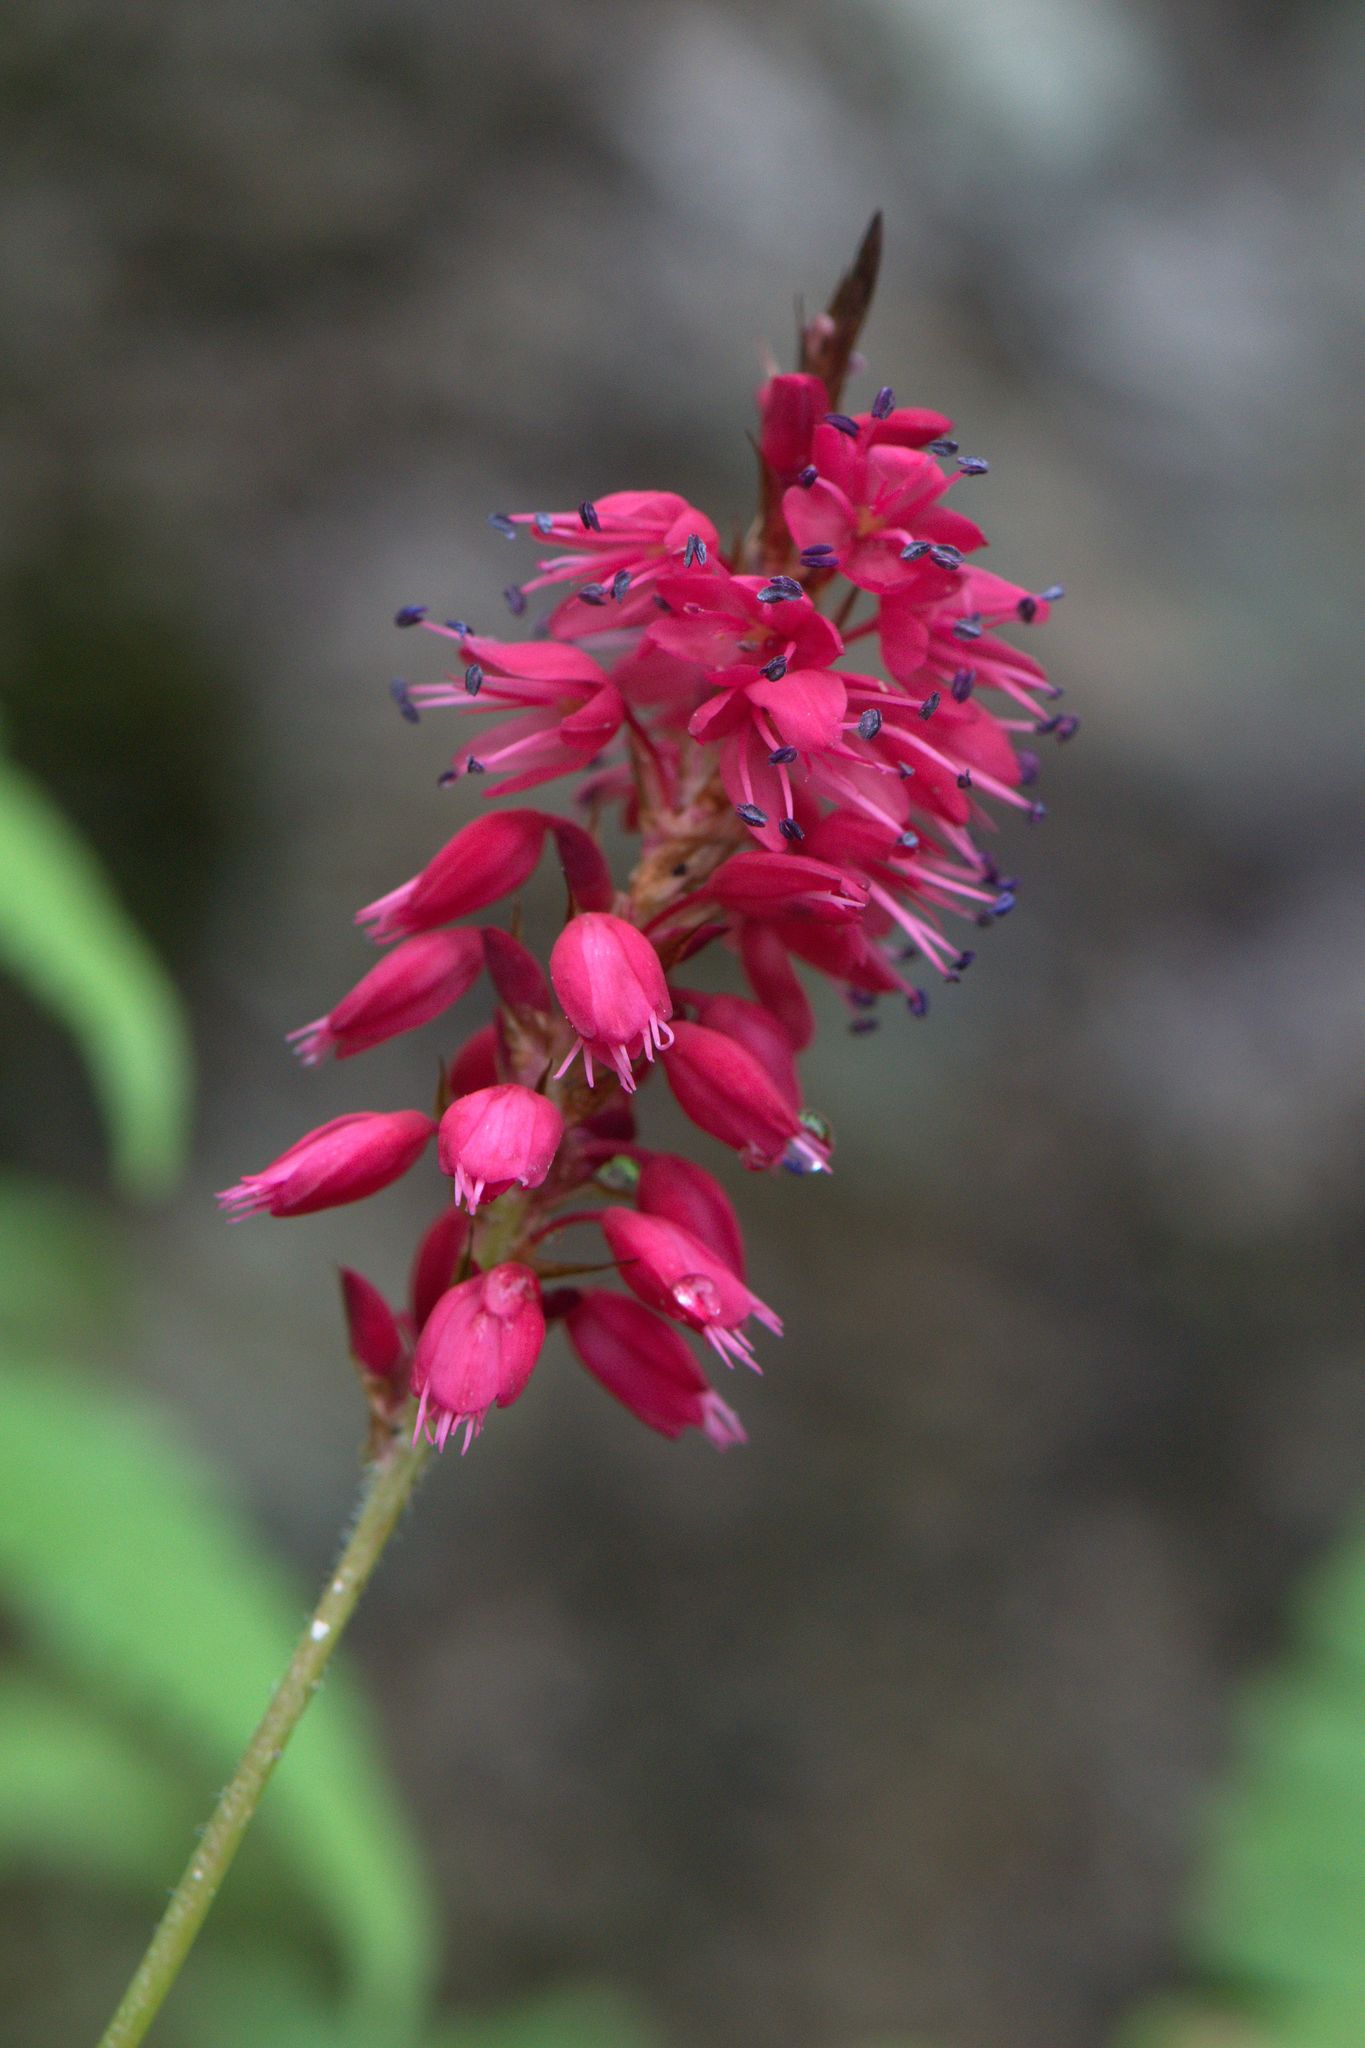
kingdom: Plantae
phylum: Tracheophyta
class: Magnoliopsida
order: Caryophyllales
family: Polygonaceae
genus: Bistorta
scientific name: Bistorta amplexicaulis
